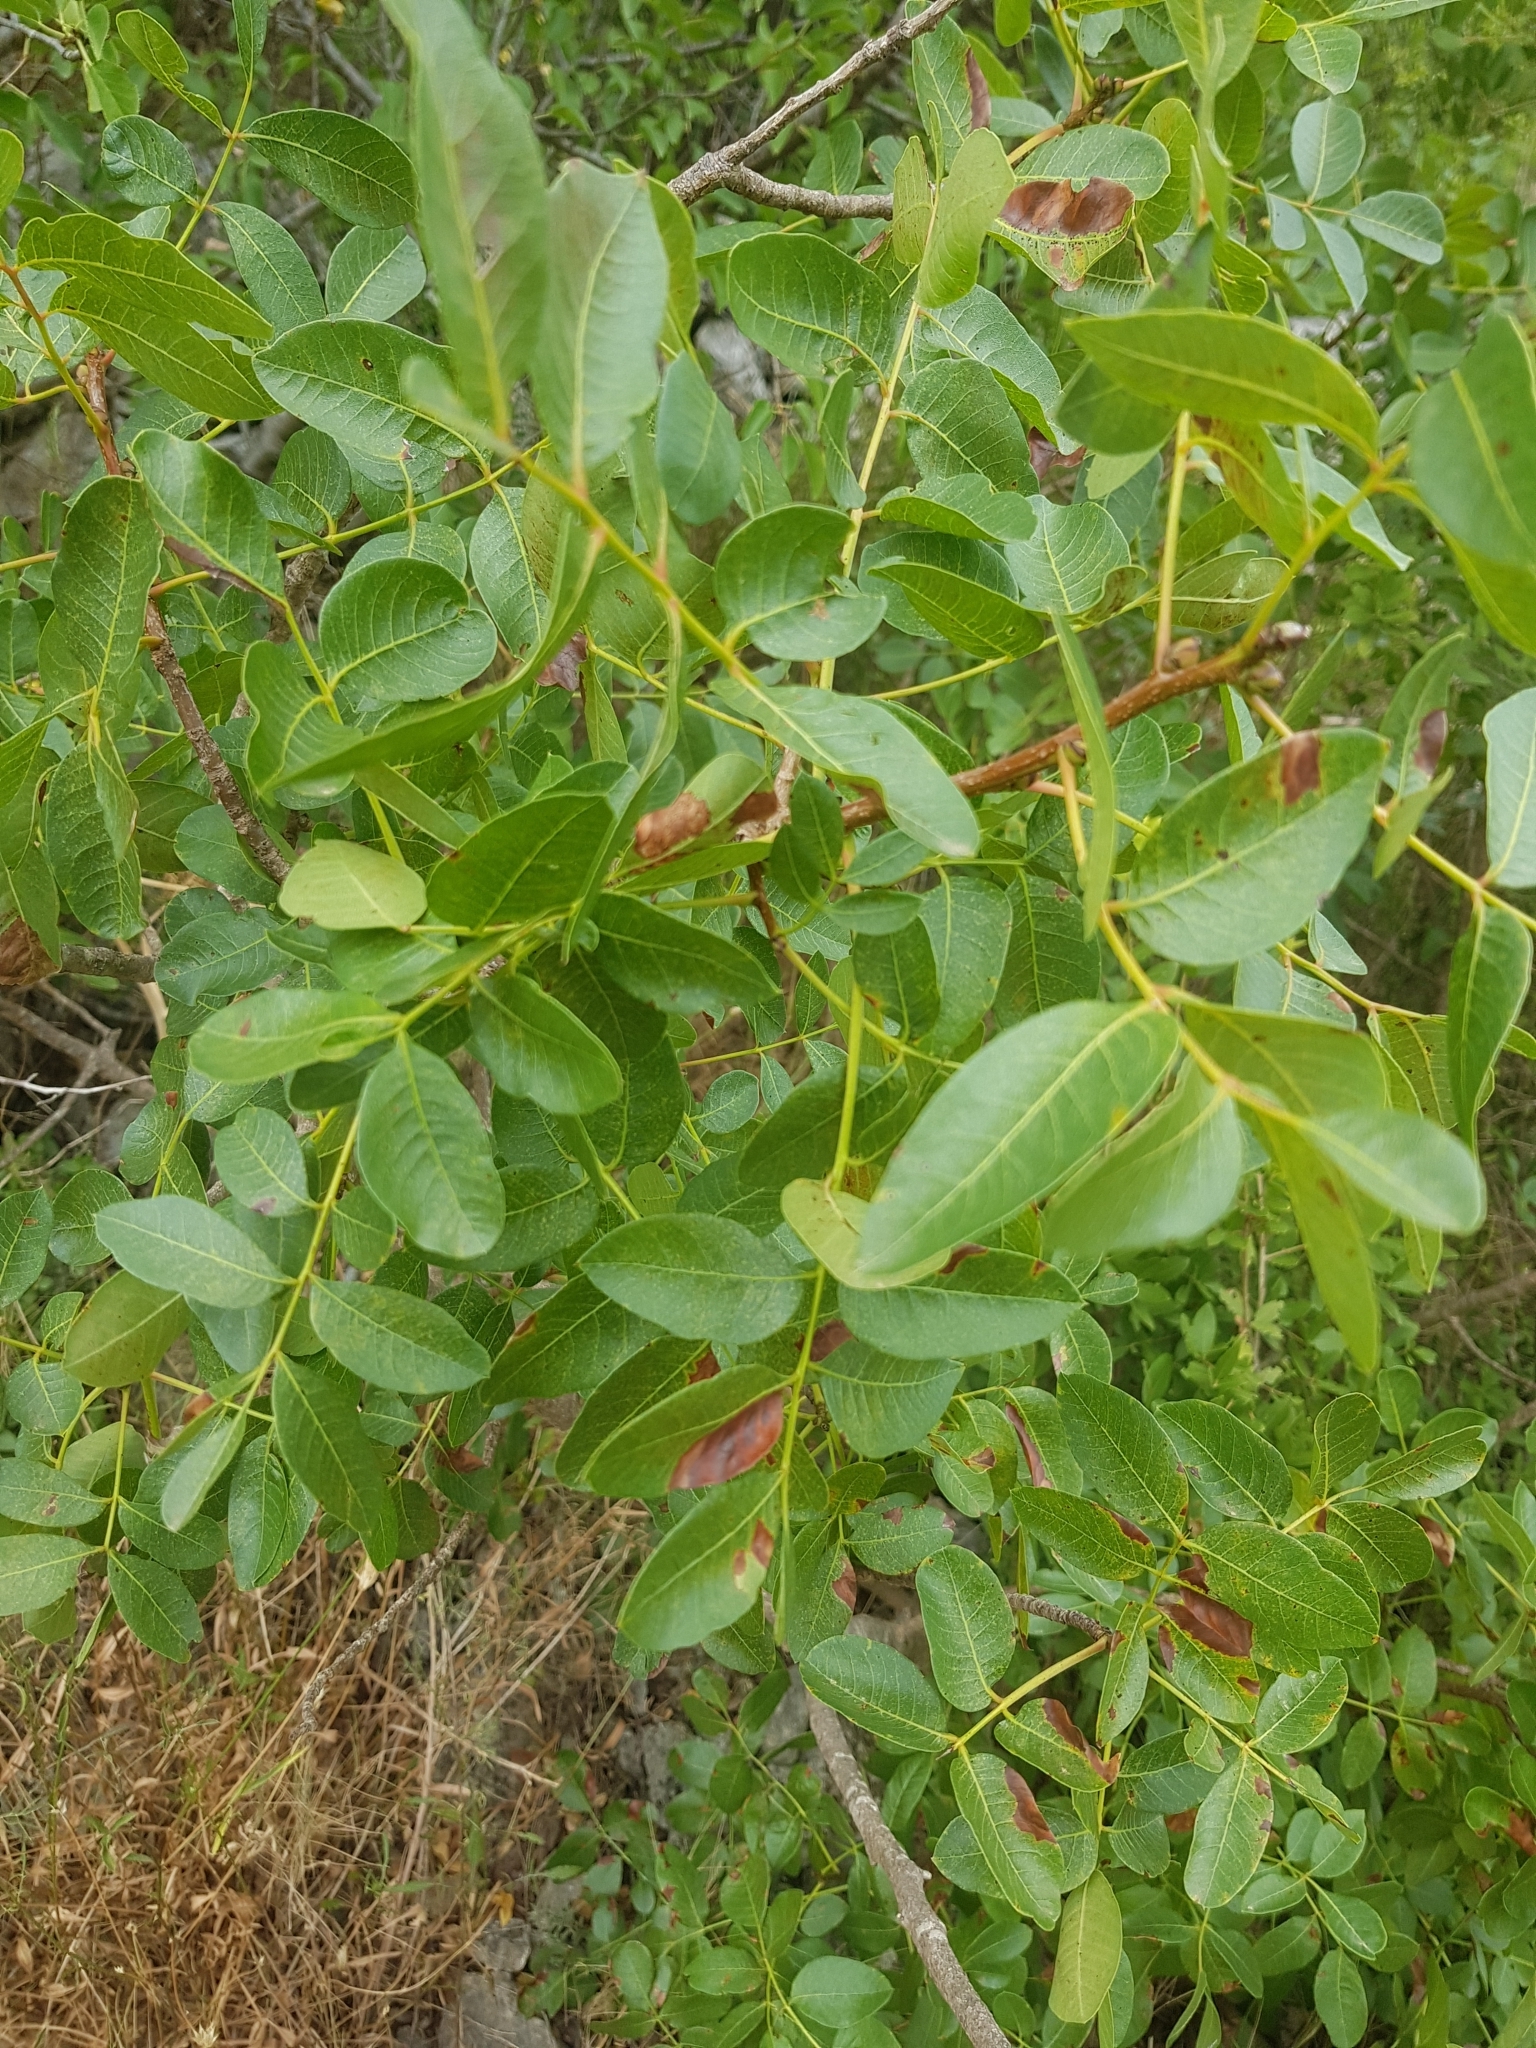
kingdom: Plantae
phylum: Tracheophyta
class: Magnoliopsida
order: Sapindales
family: Anacardiaceae
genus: Pistacia
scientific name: Pistacia terebinthus
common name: Terebinth
